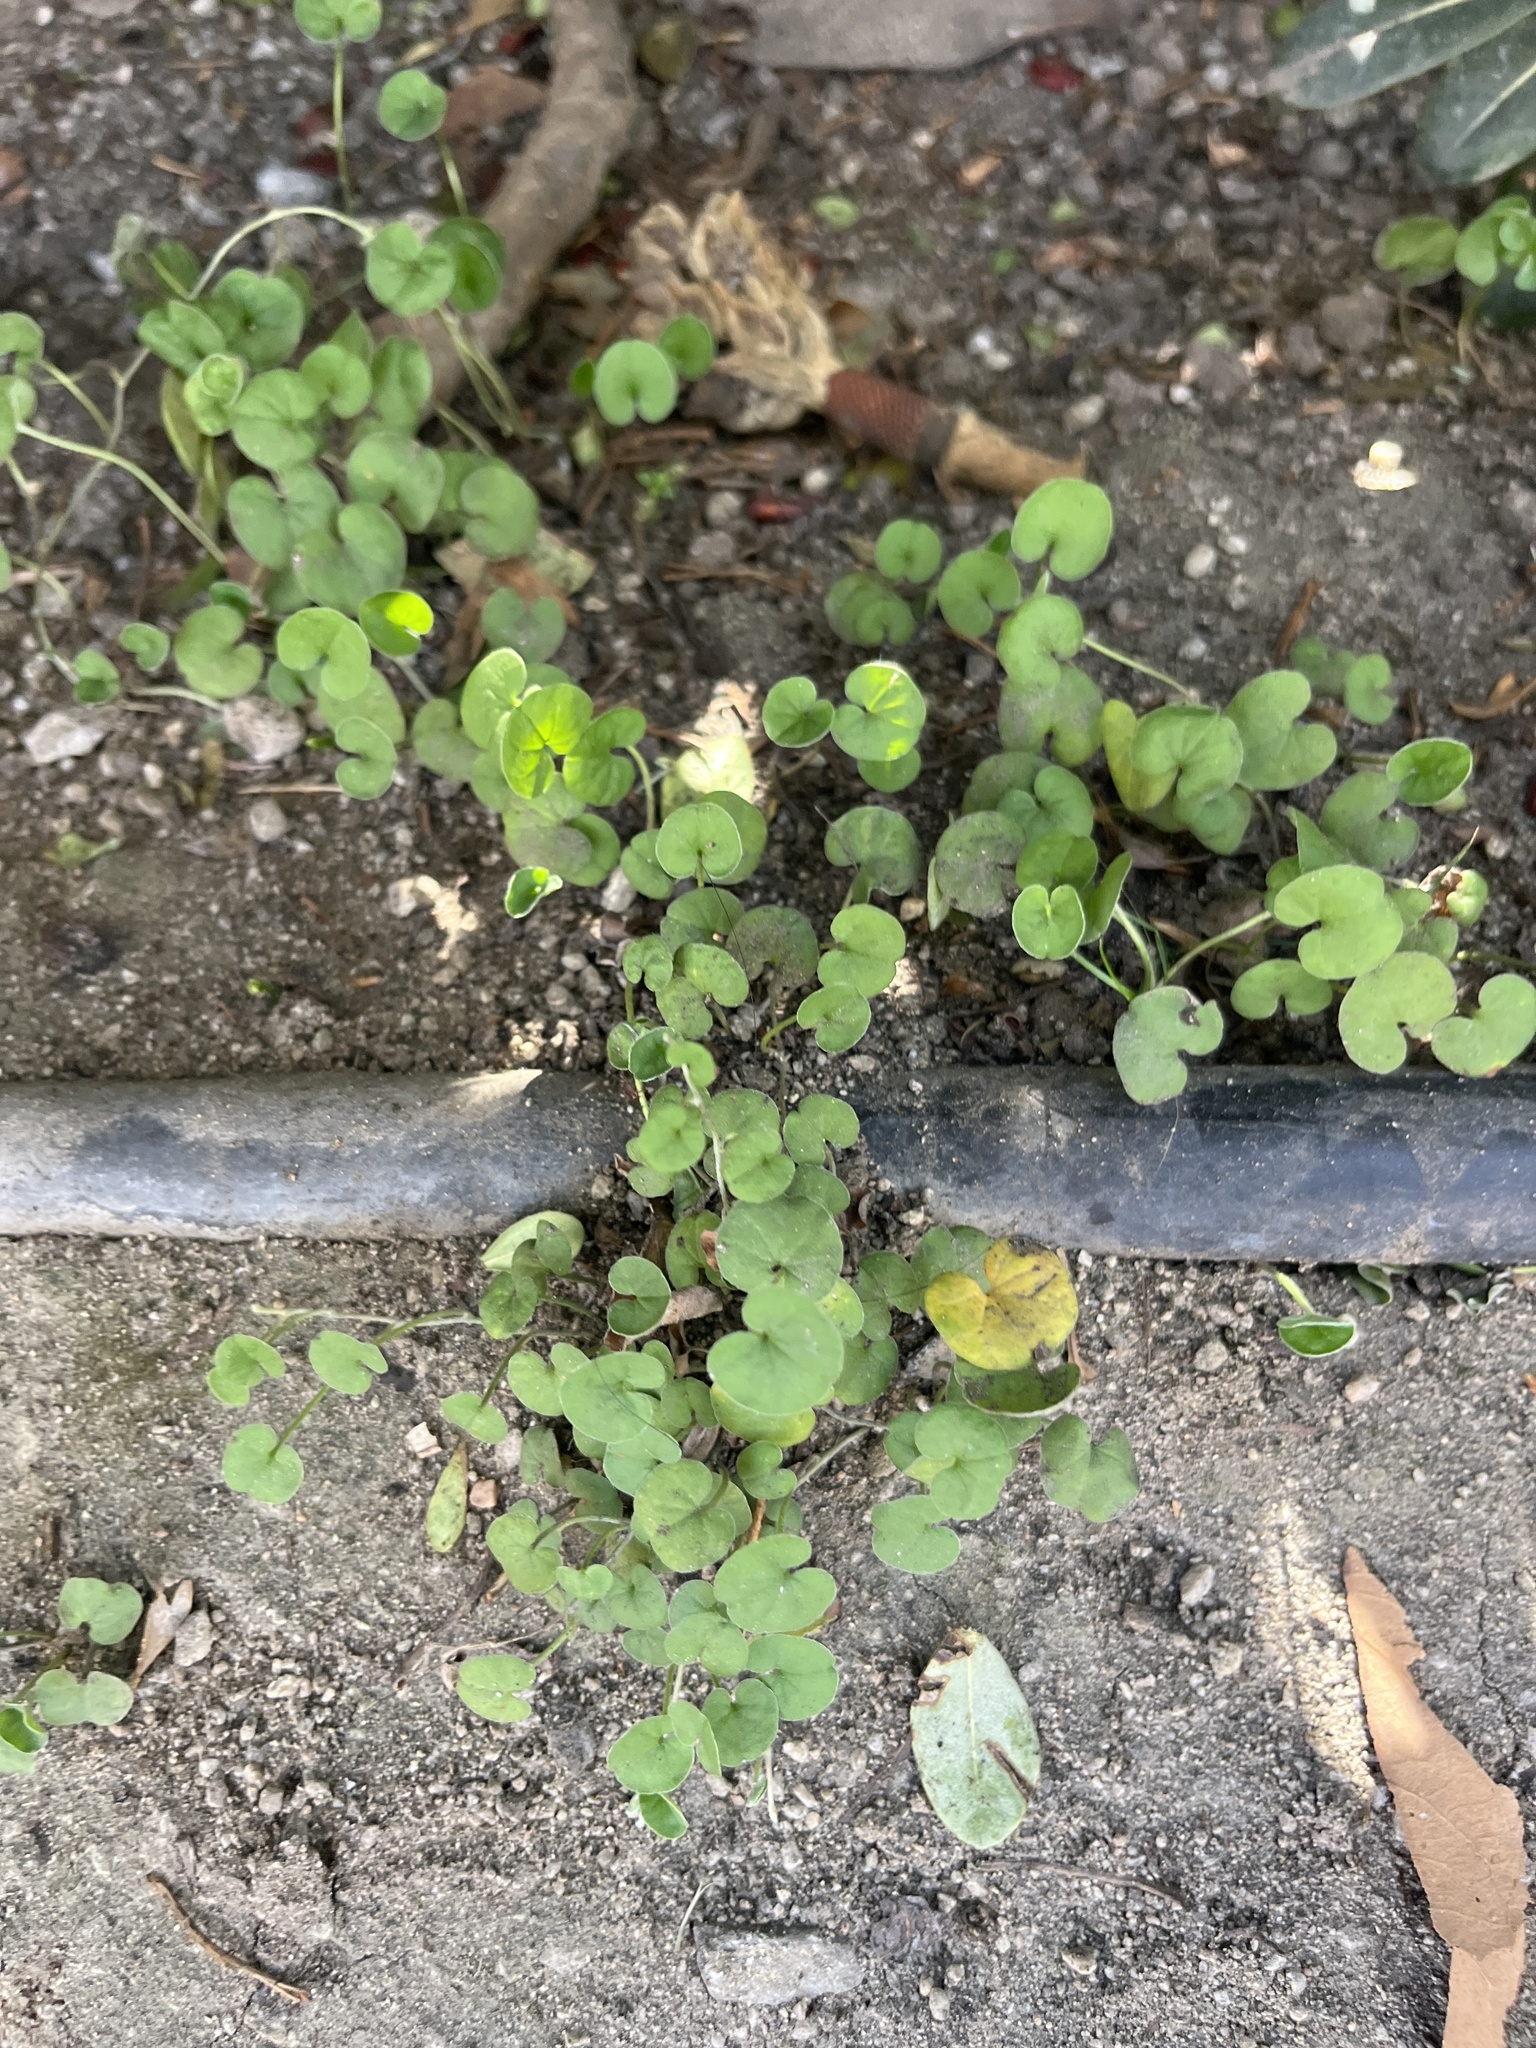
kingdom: Plantae
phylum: Tracheophyta
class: Magnoliopsida
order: Solanales
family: Convolvulaceae
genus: Dichondra
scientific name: Dichondra micrantha
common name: Kidneyweed
